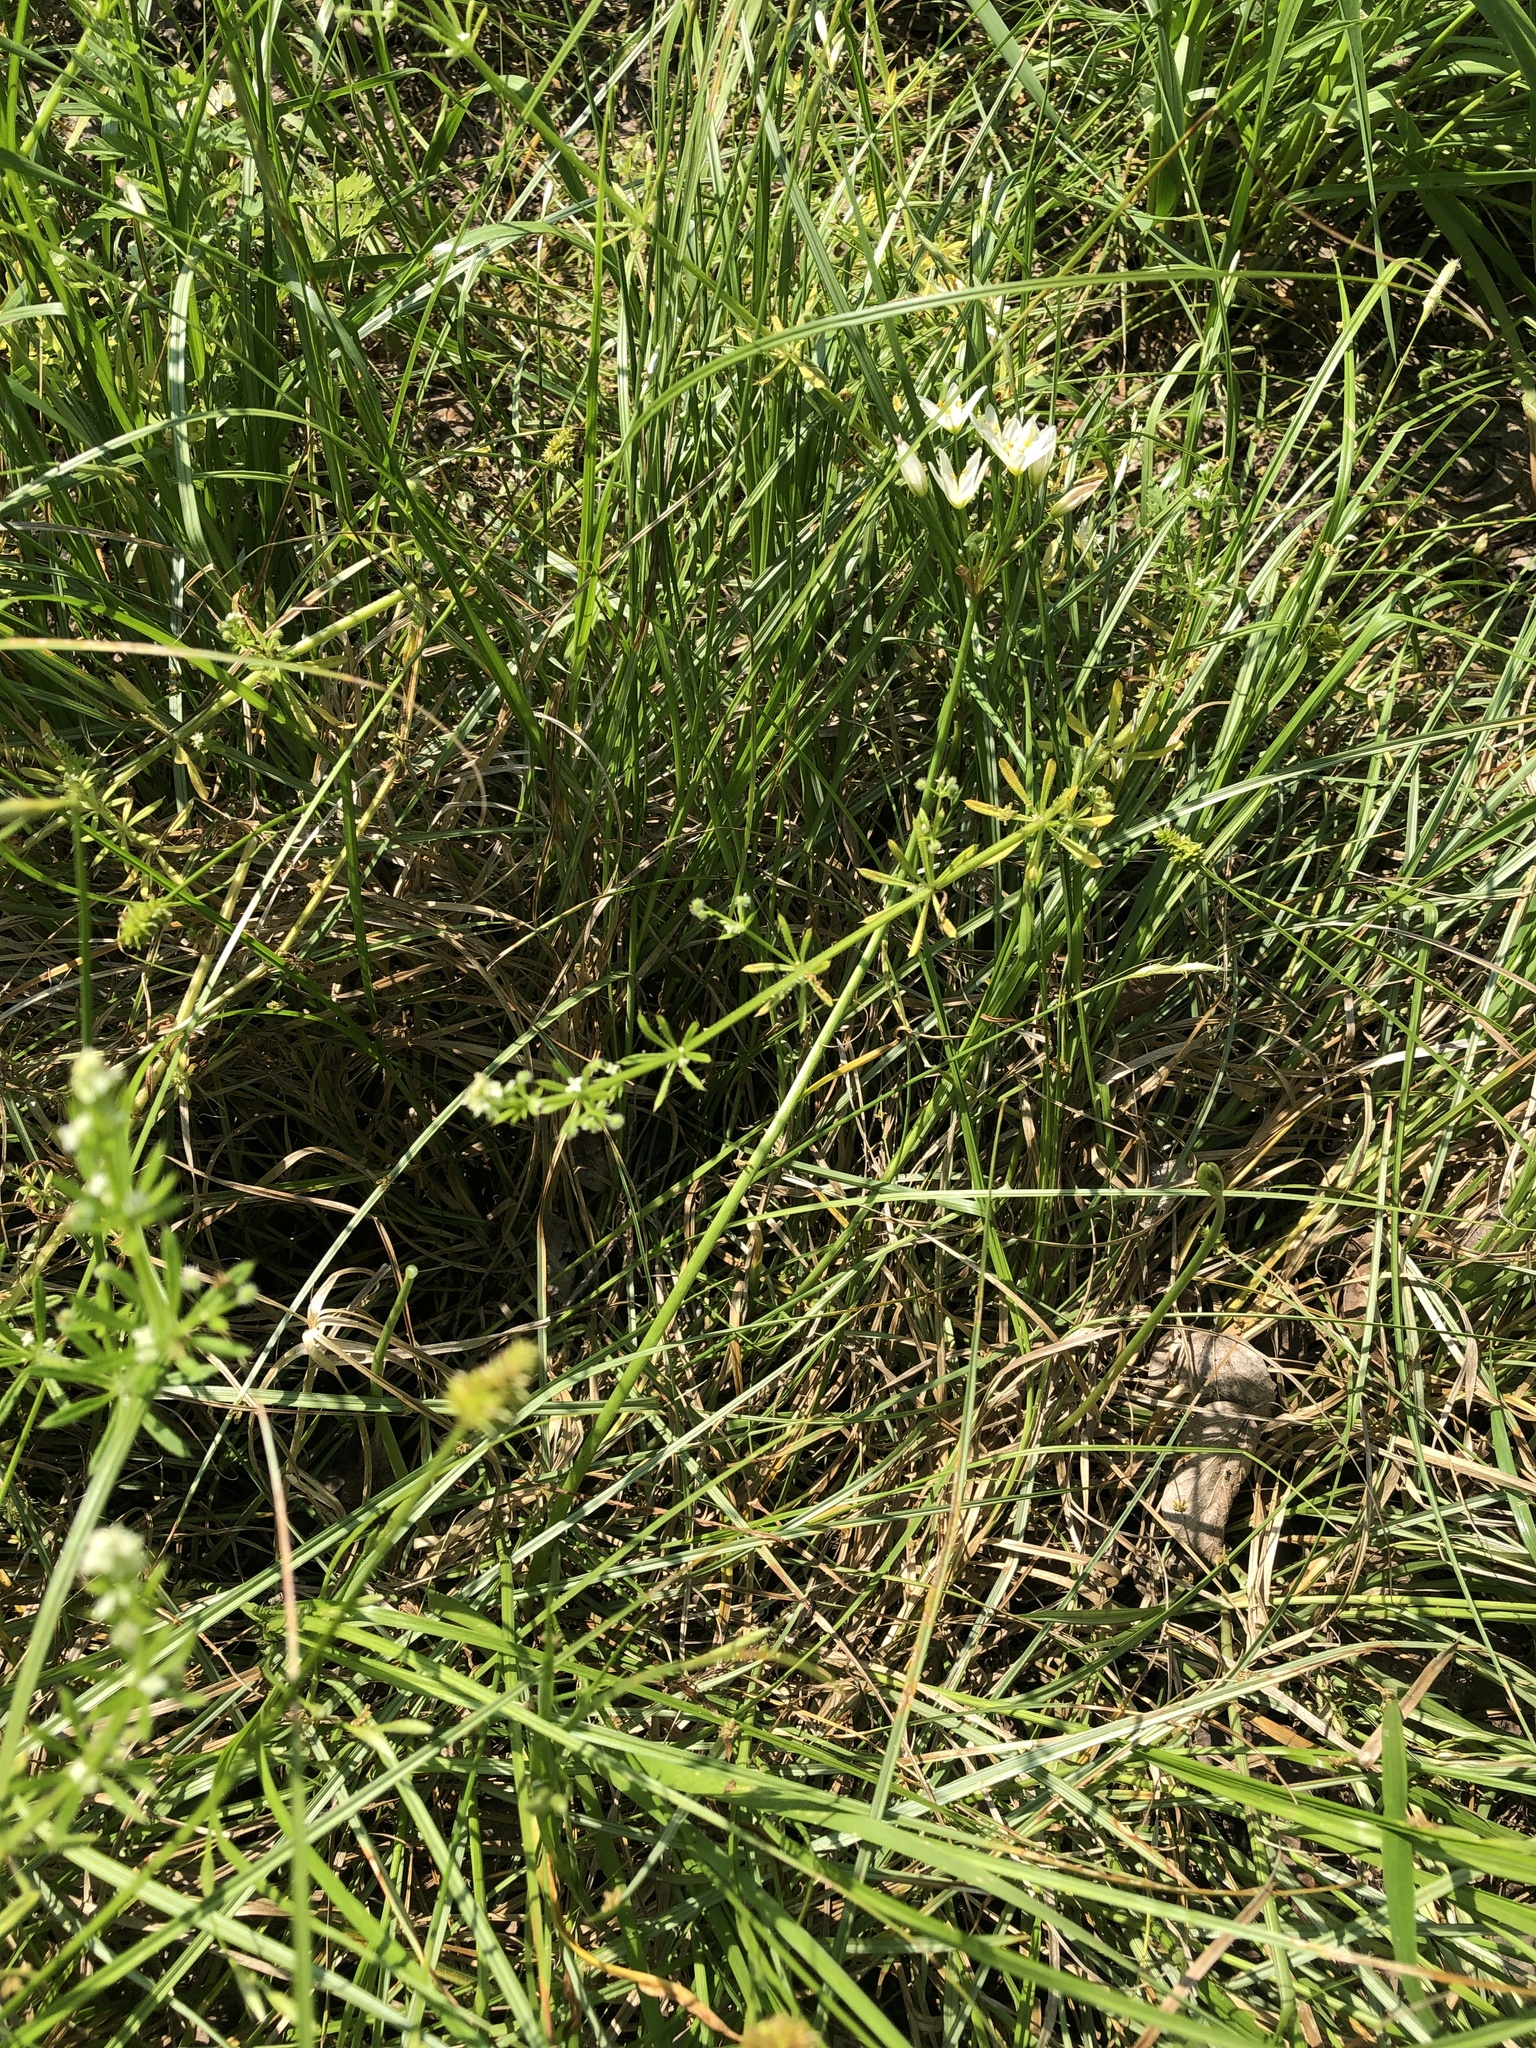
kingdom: Plantae
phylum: Tracheophyta
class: Liliopsida
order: Asparagales
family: Amaryllidaceae
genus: Nothoscordum
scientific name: Nothoscordum bivalve
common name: Crow-poison
